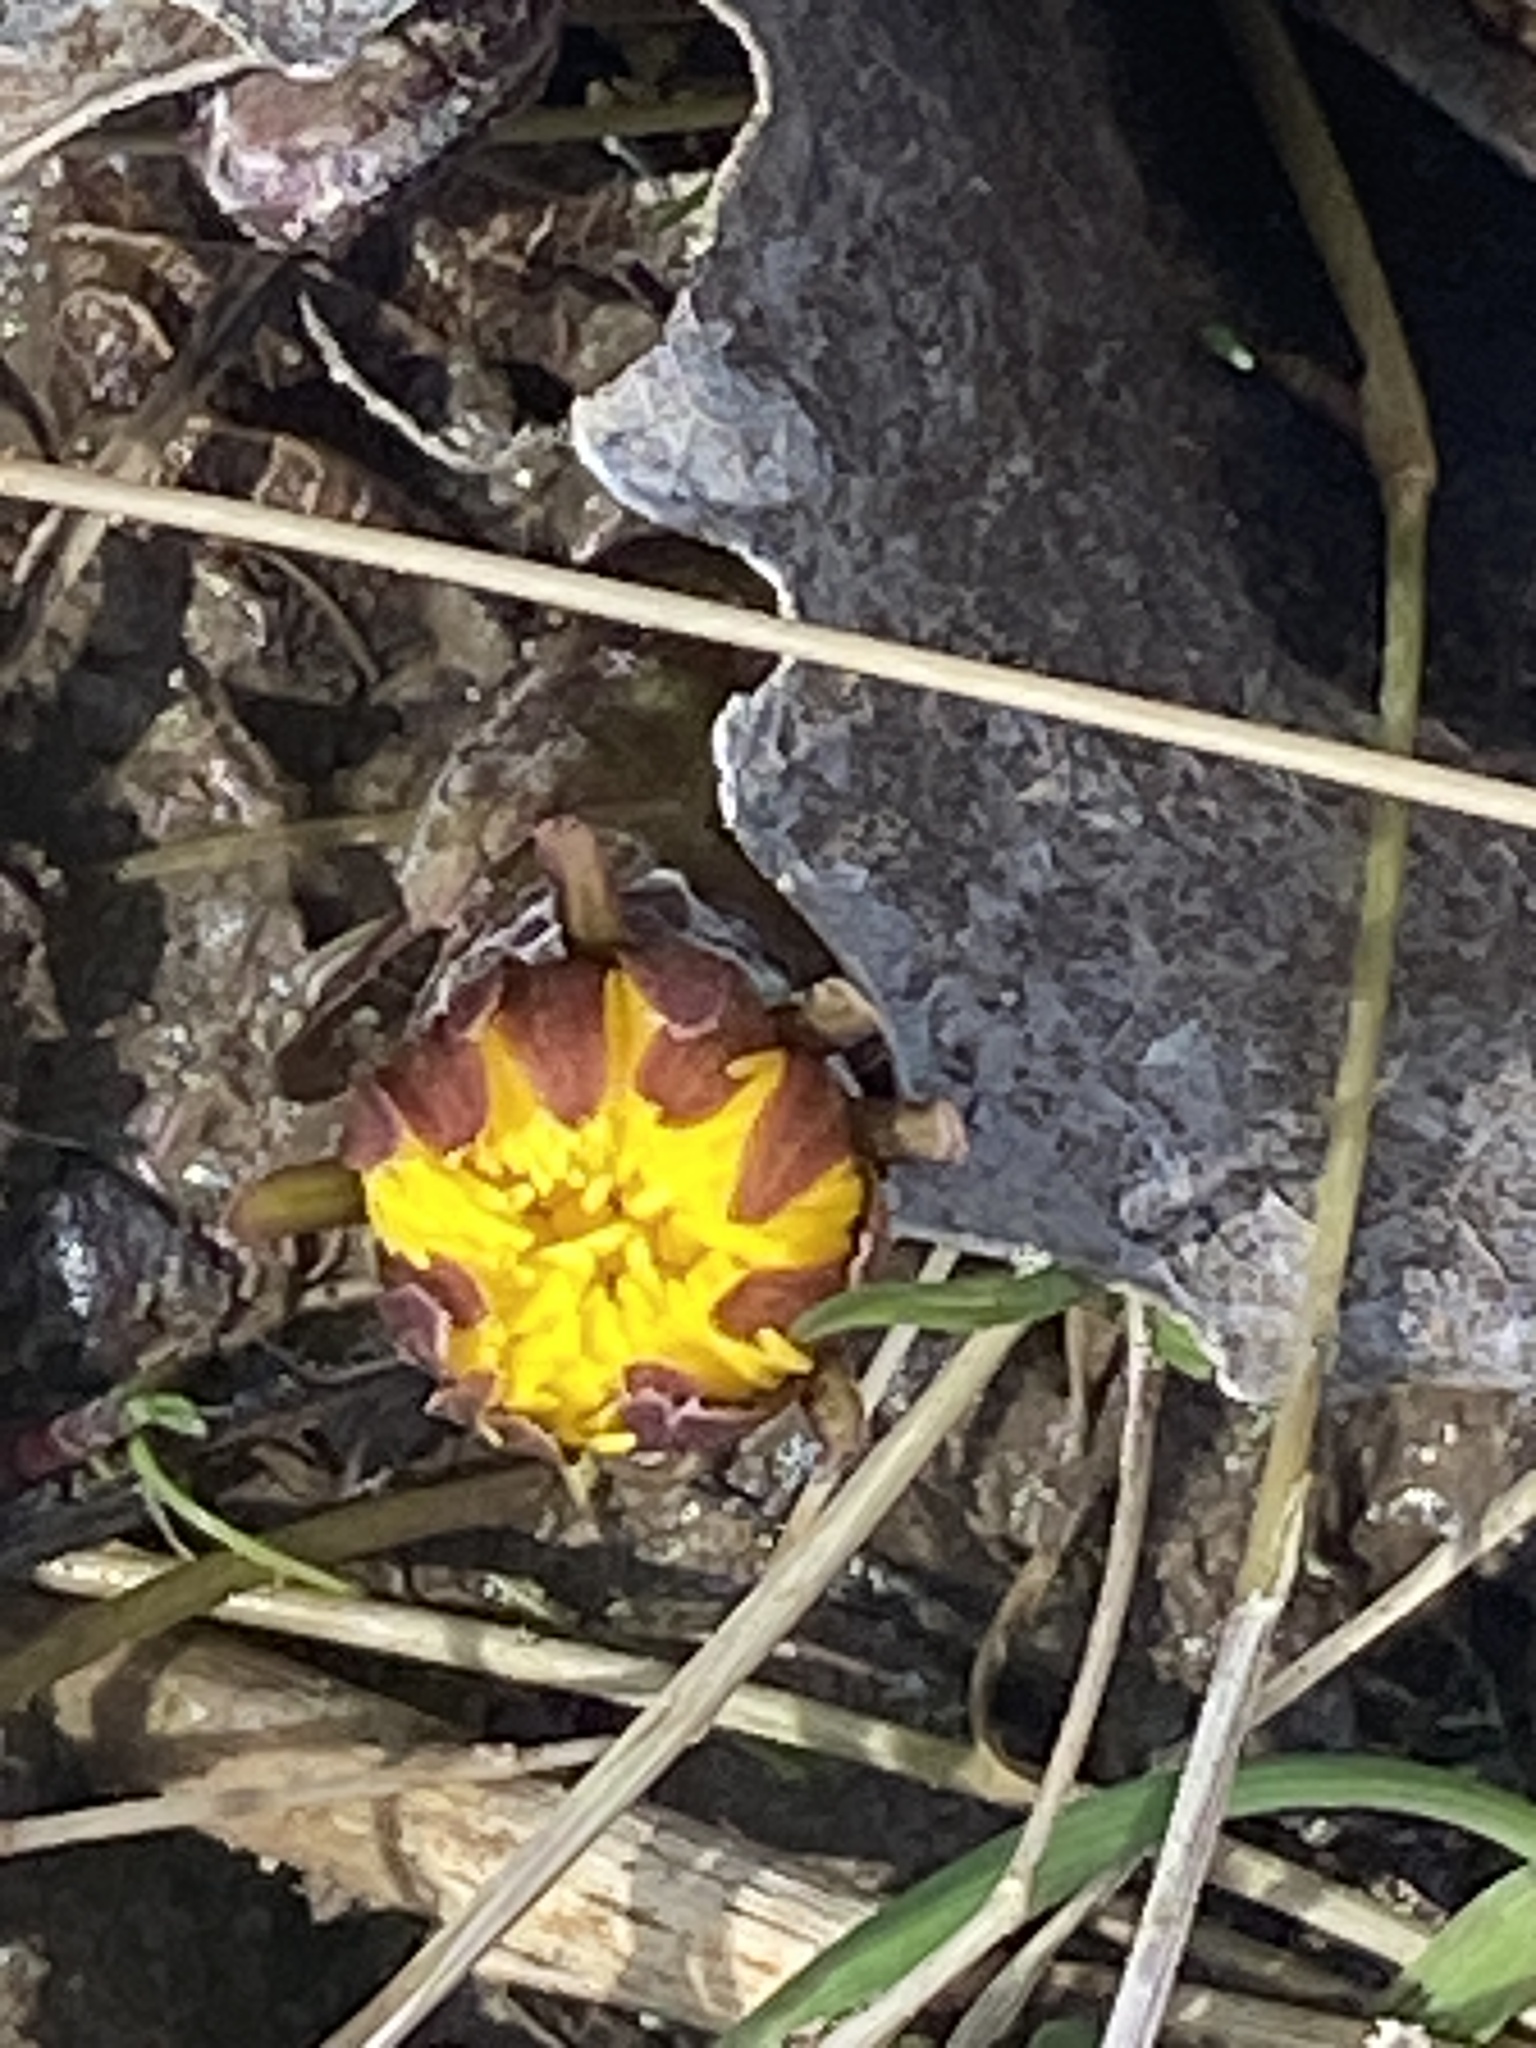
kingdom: Plantae
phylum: Tracheophyta
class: Magnoliopsida
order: Asterales
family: Asteraceae
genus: Tussilago
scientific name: Tussilago farfara
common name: Coltsfoot
